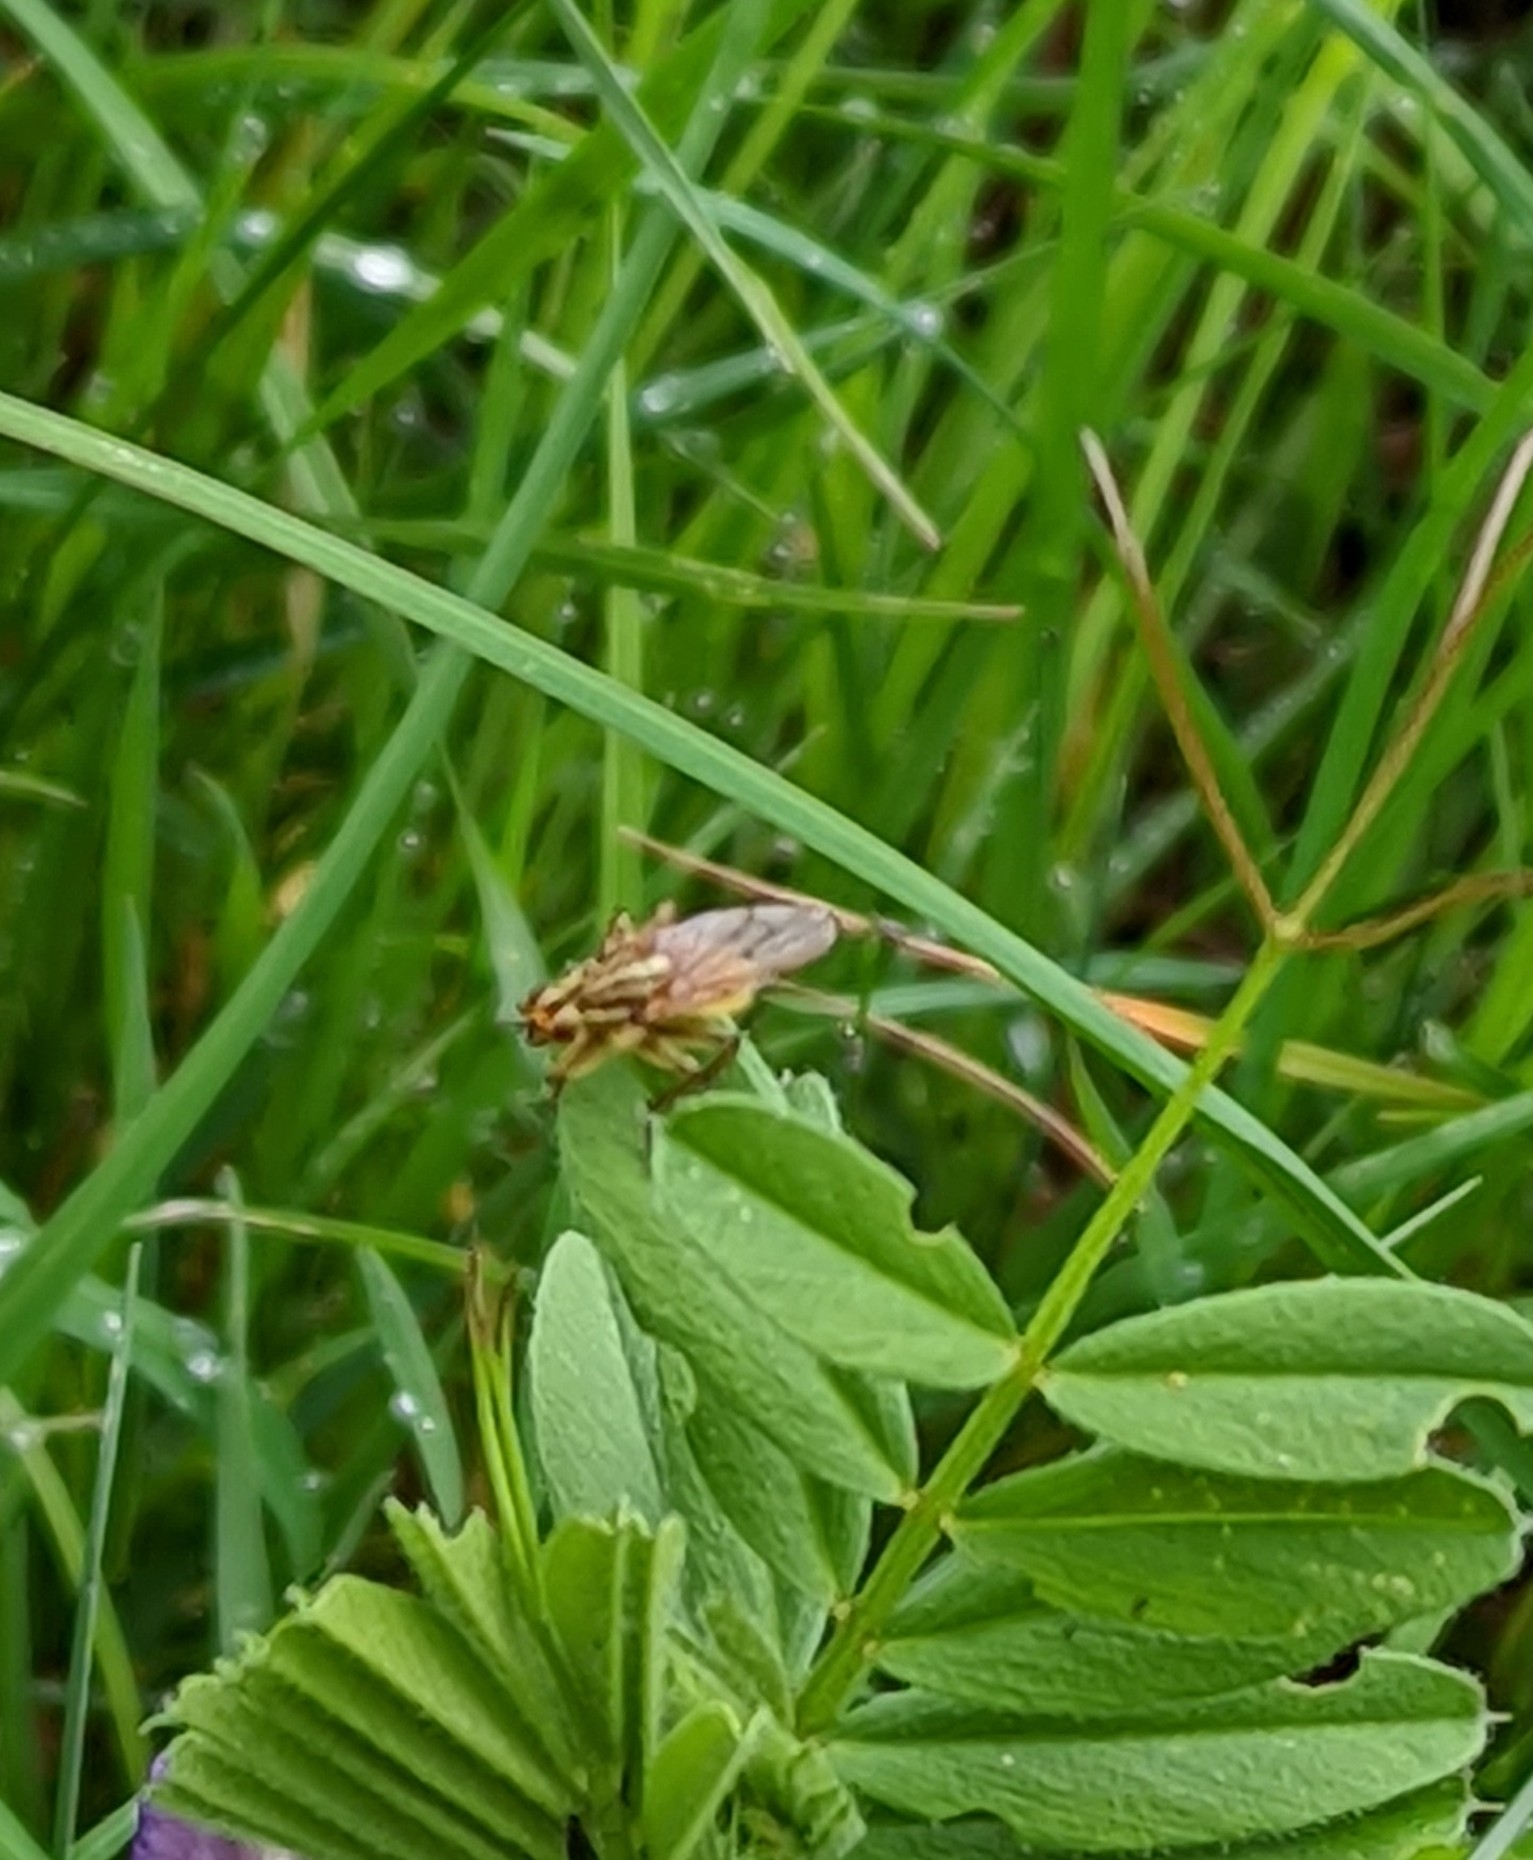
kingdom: Animalia
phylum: Arthropoda
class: Insecta
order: Diptera
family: Scathophagidae
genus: Scathophaga
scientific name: Scathophaga stercoraria
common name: Yellow dung fly
